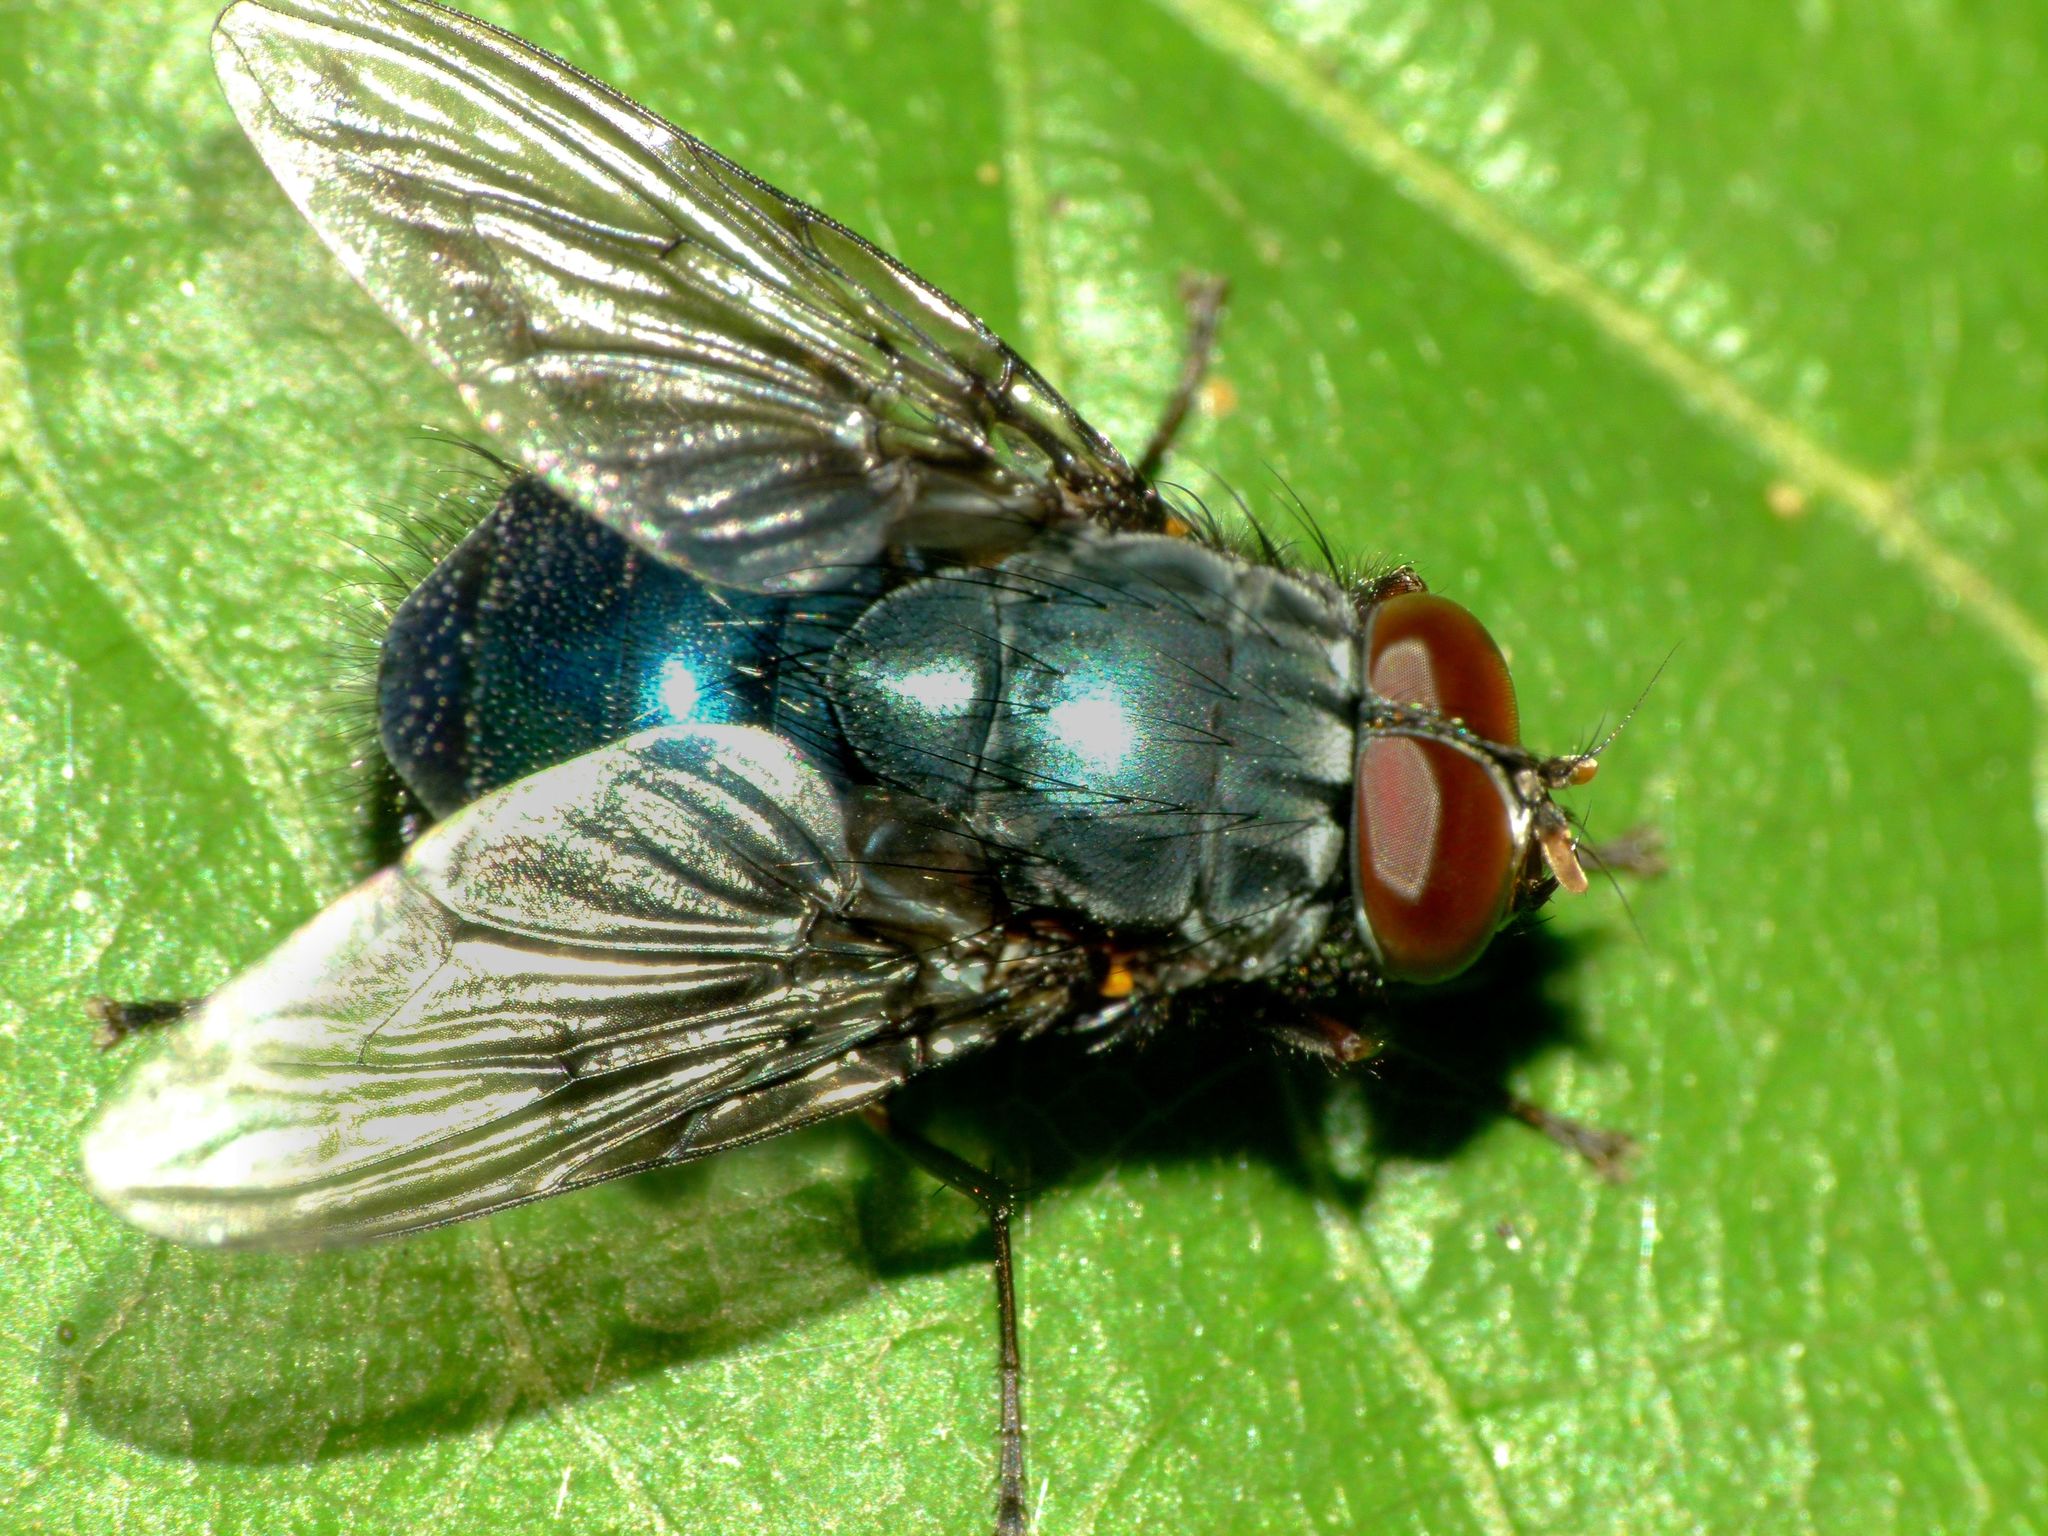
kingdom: Animalia
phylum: Arthropoda
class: Insecta
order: Diptera
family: Muscidae
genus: Calliphoroides
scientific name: Calliphoroides antennatis
